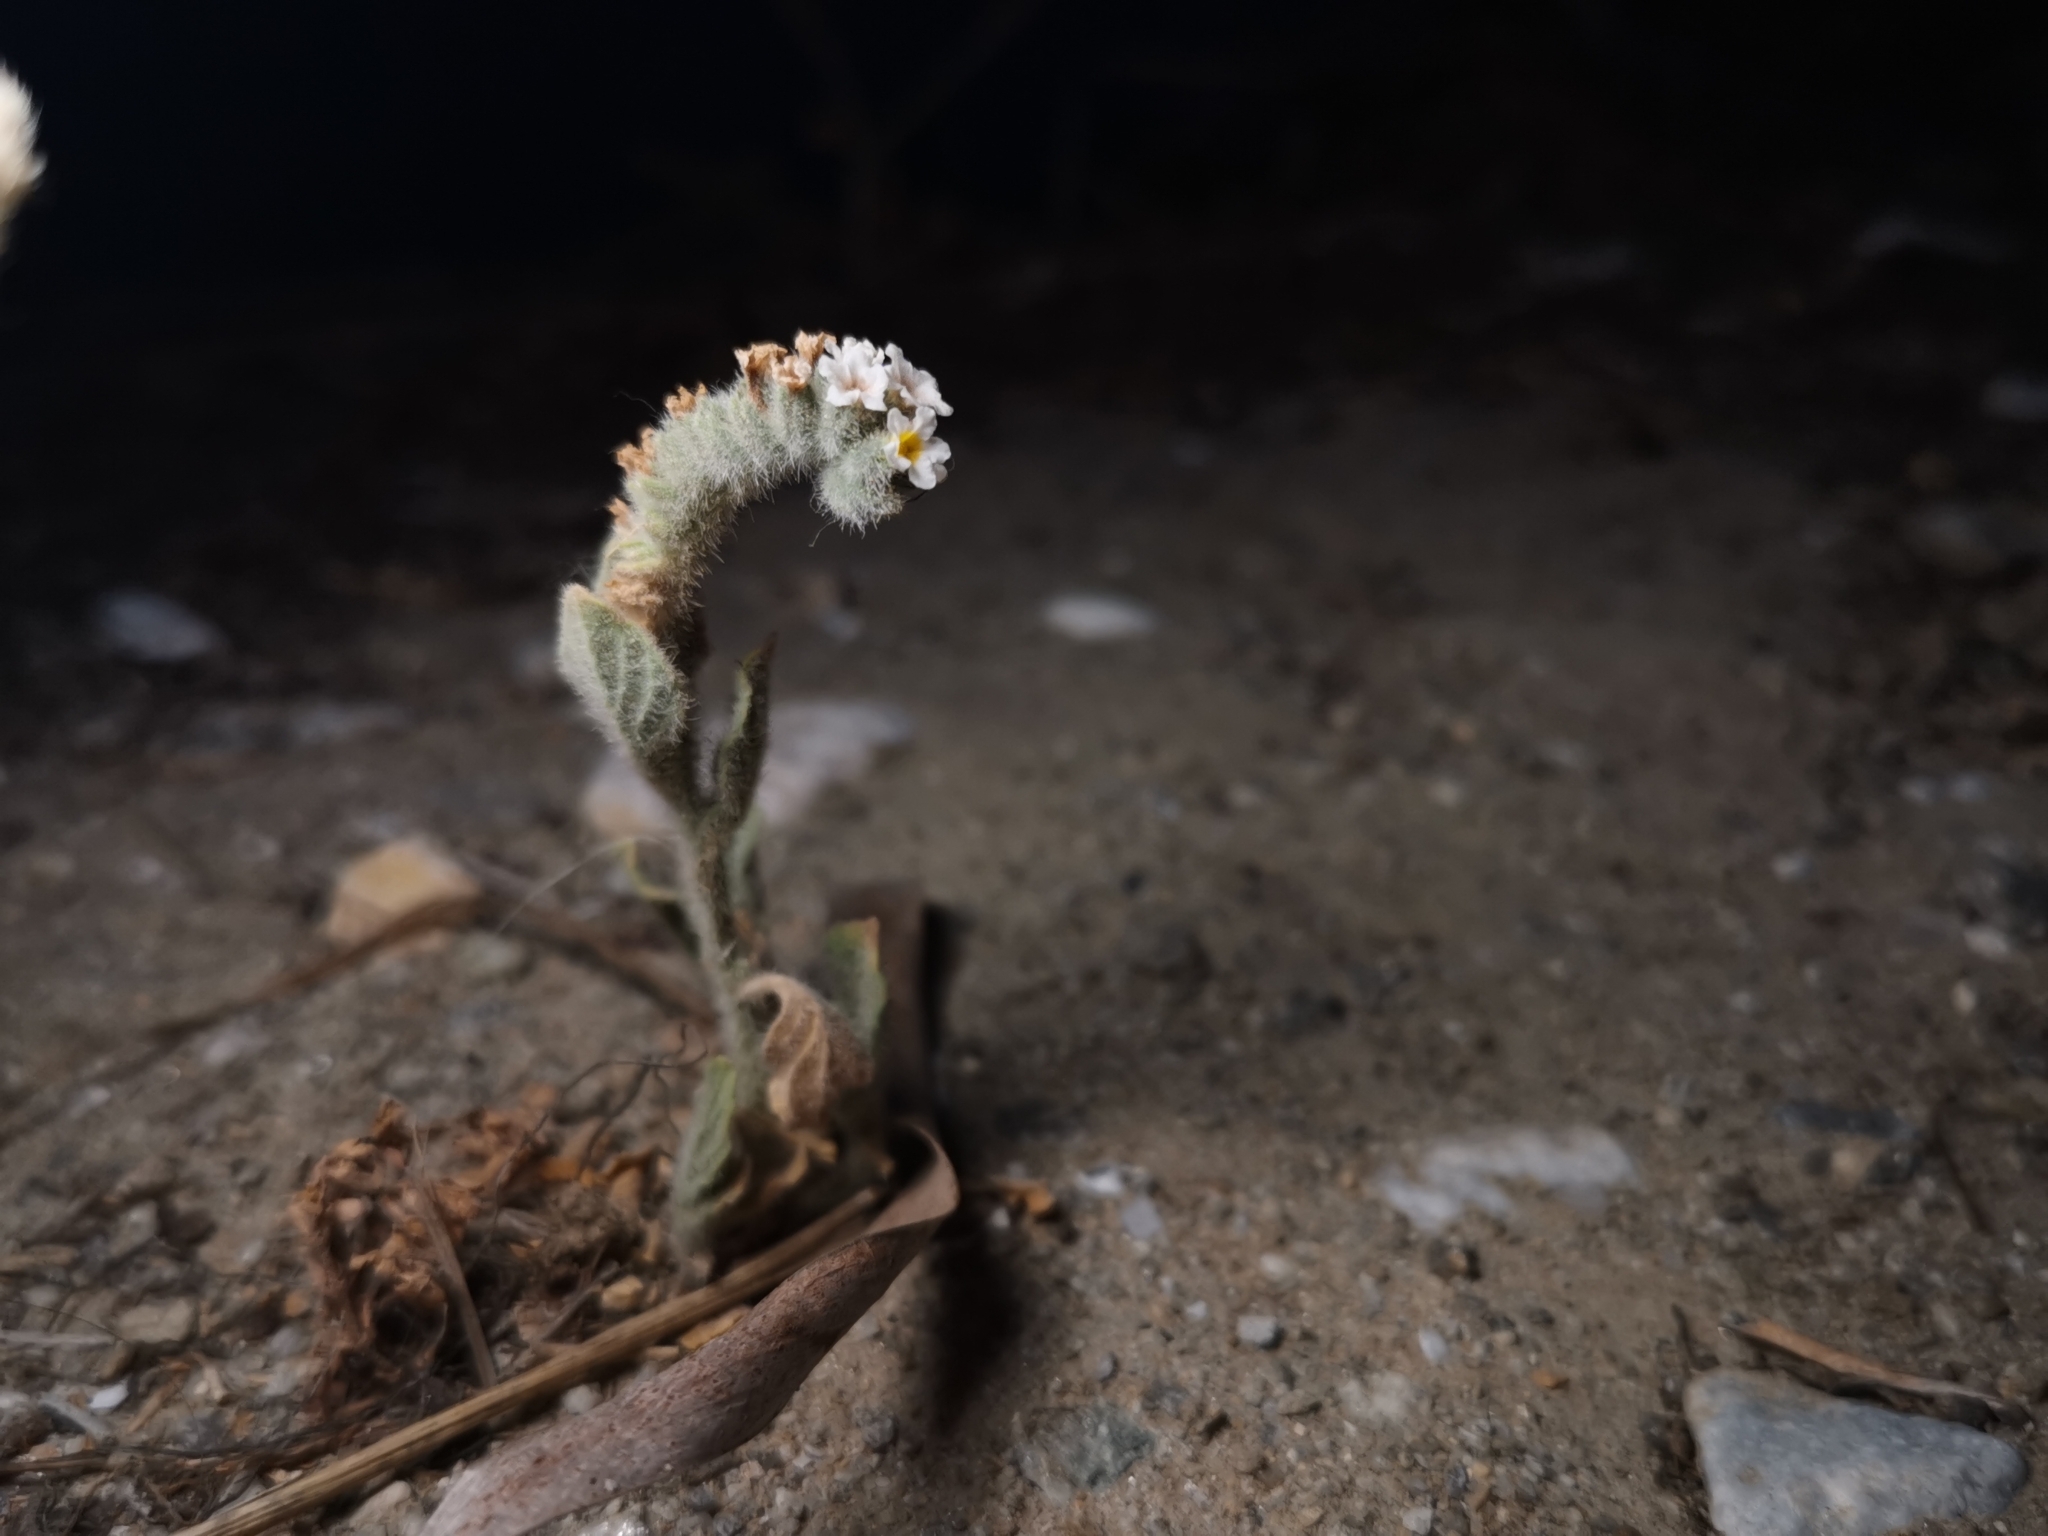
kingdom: Plantae
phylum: Tracheophyta
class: Magnoliopsida
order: Boraginales
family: Heliotropiaceae
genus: Heliotropium
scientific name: Heliotropium hirsutissimum
